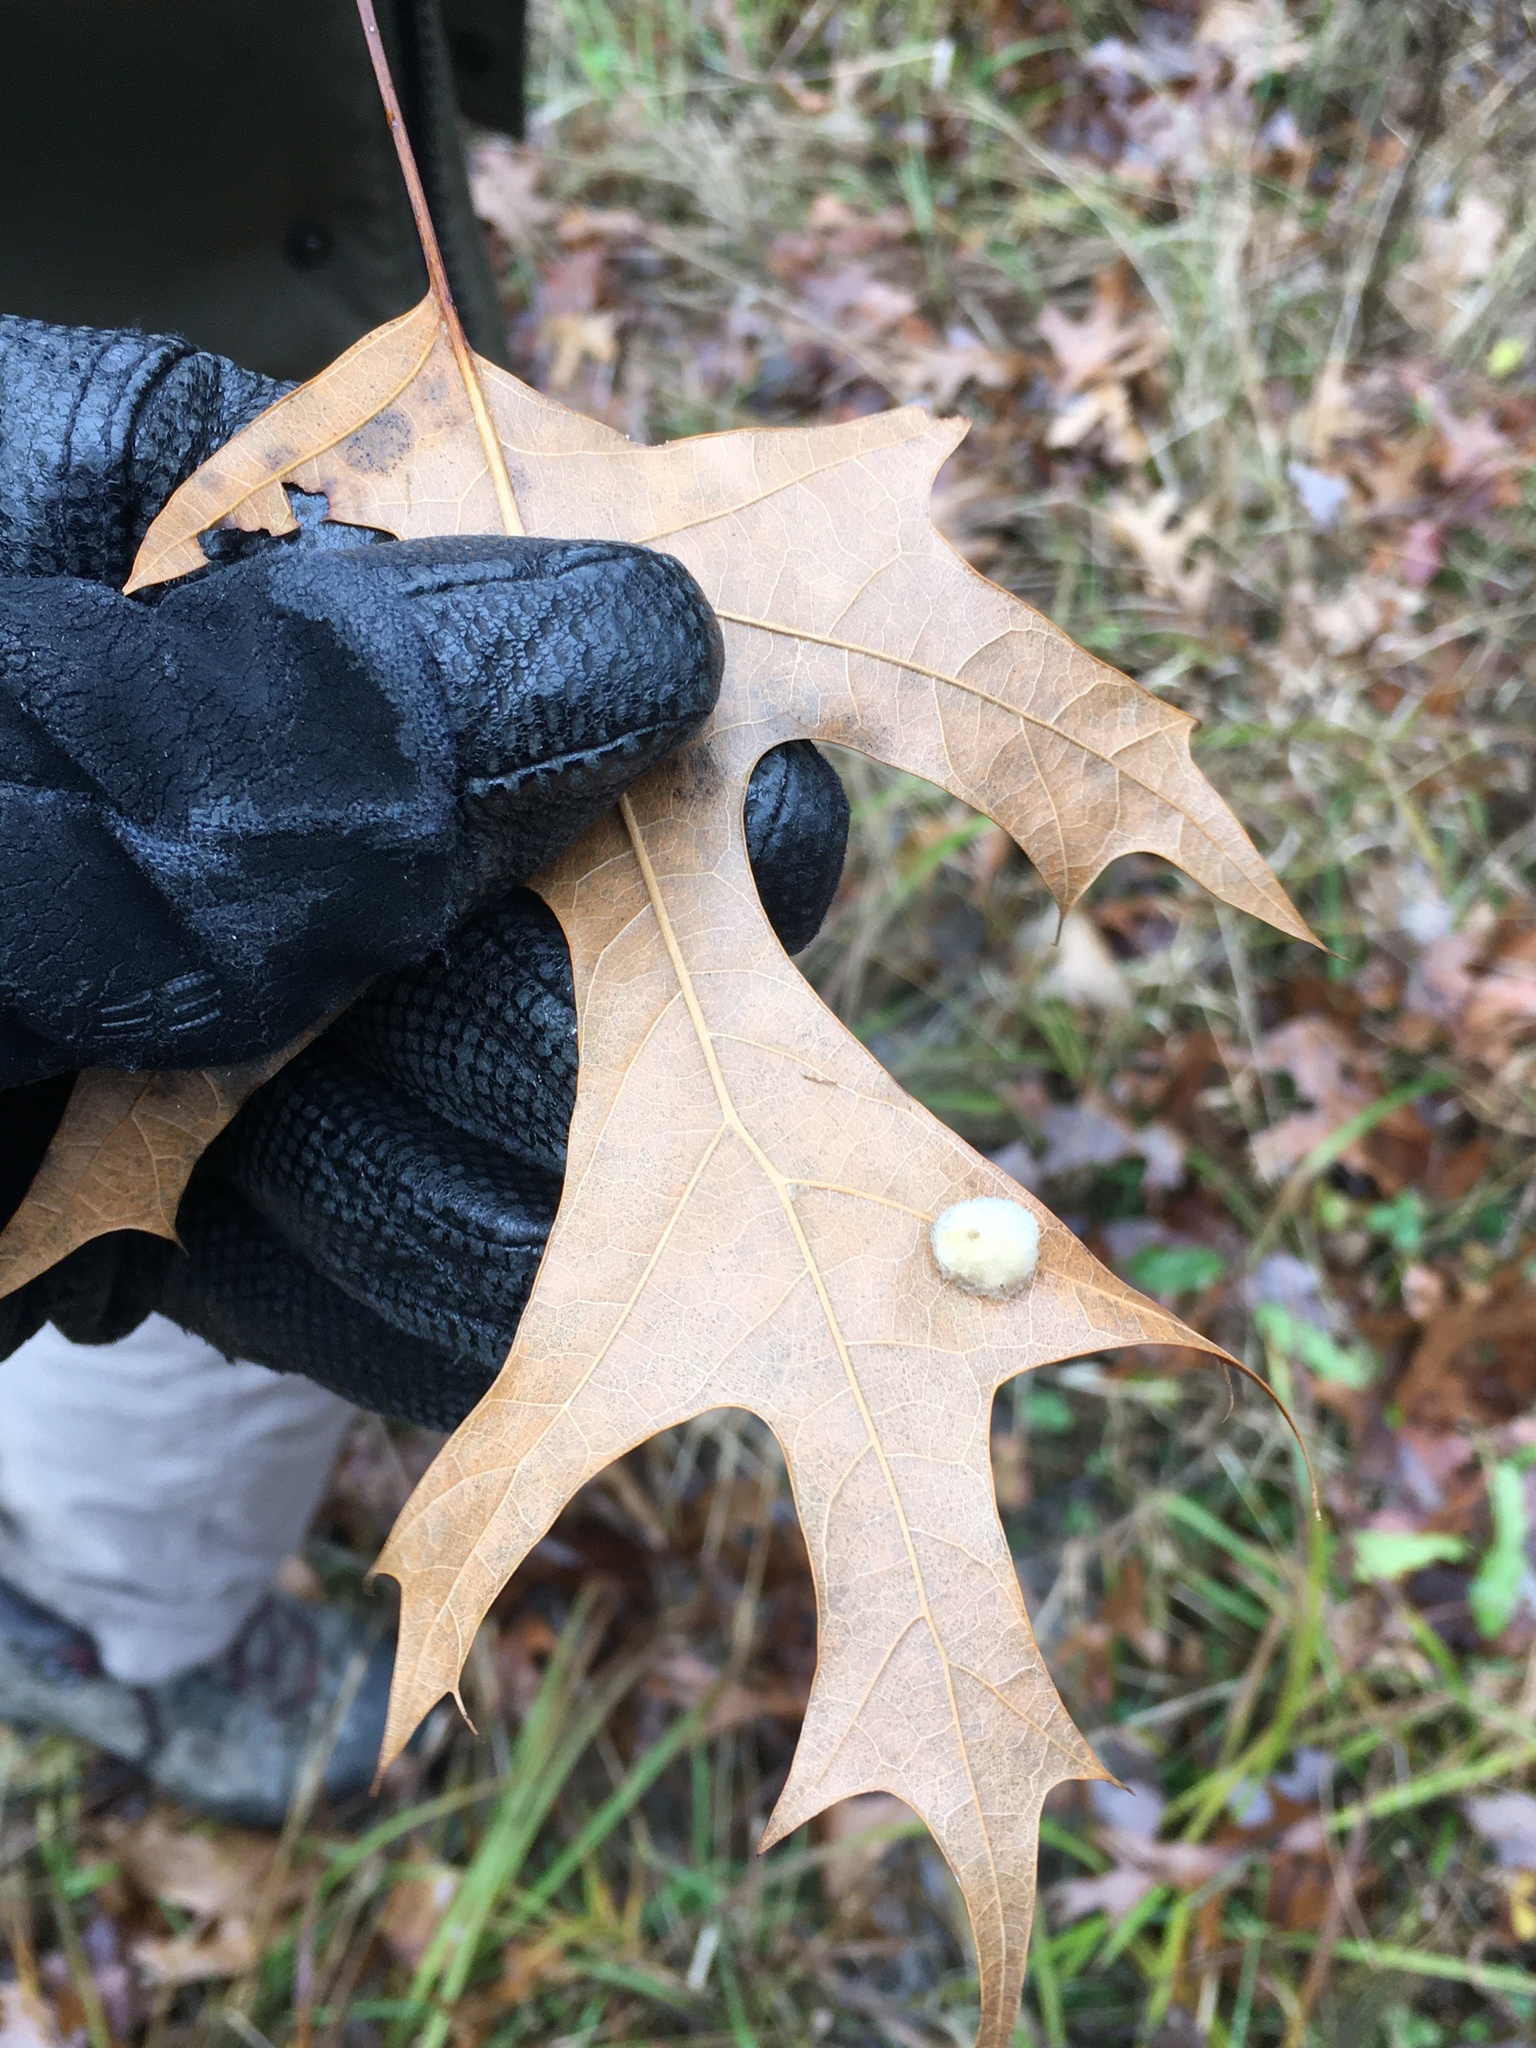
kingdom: Animalia
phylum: Arthropoda
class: Insecta
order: Hymenoptera
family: Cynipidae
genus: Callirhytis
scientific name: Callirhytis
